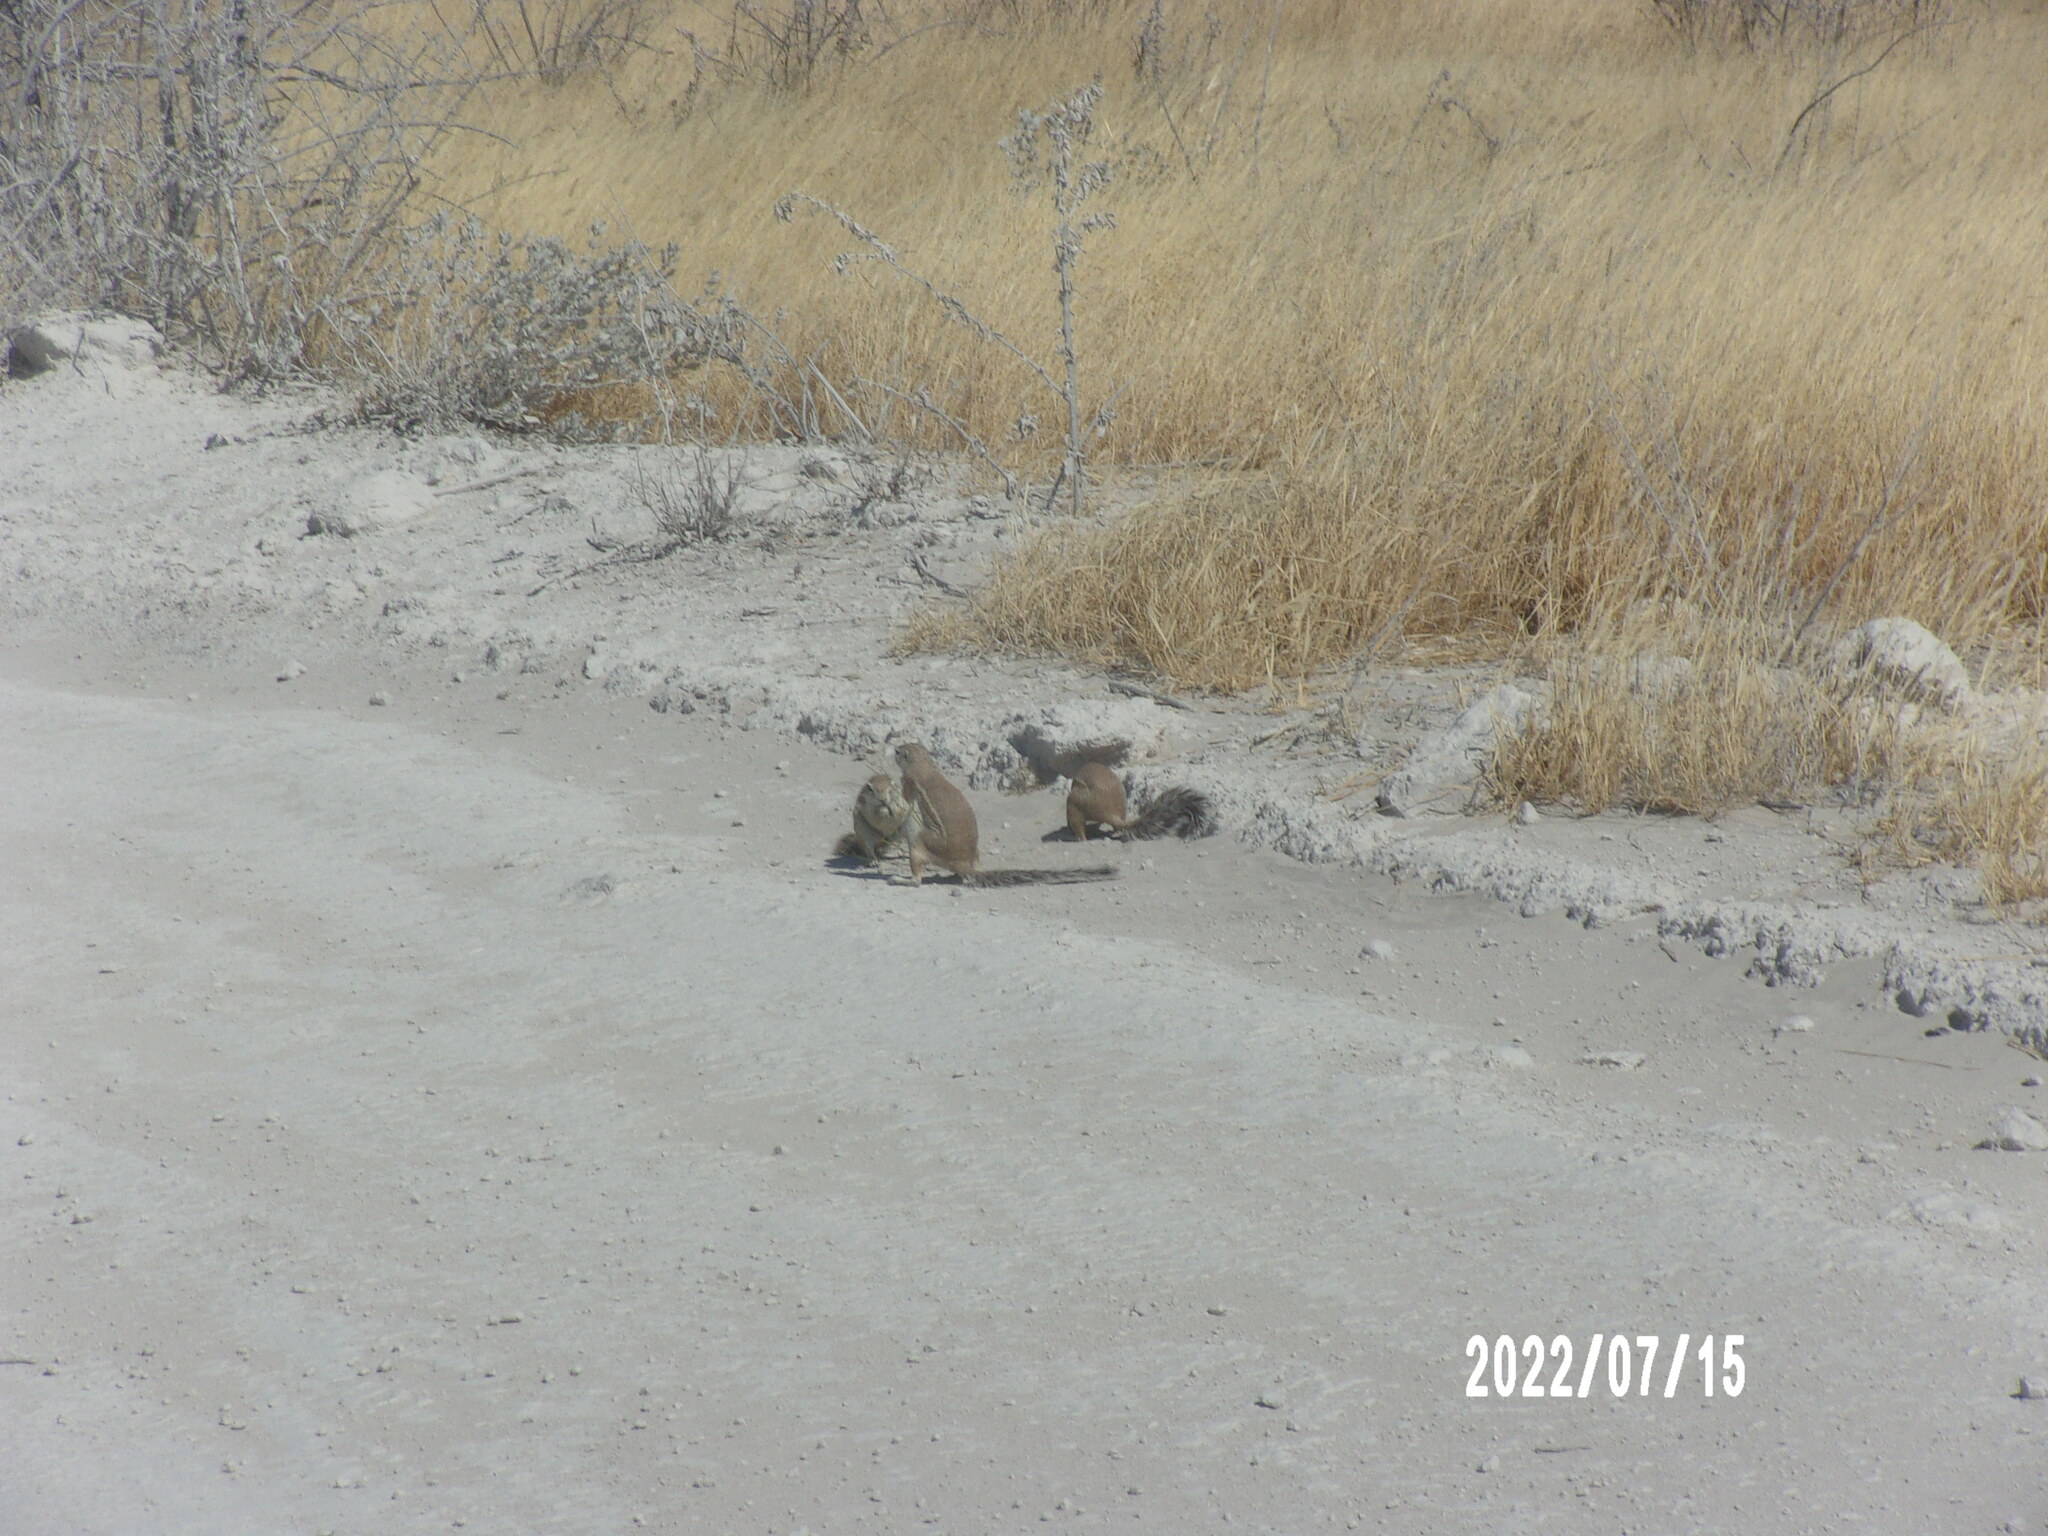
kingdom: Animalia
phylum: Chordata
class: Mammalia
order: Rodentia
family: Sciuridae
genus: Xerus
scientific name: Xerus inauris
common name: South african ground squirrel
